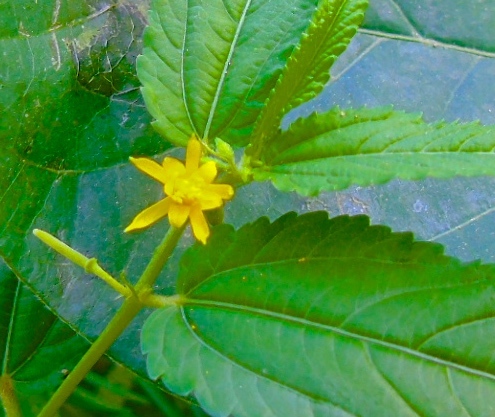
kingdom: Plantae
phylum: Tracheophyta
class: Magnoliopsida
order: Malvales
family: Malvaceae
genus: Corchorus
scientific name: Corchorus aestuans
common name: Jute
